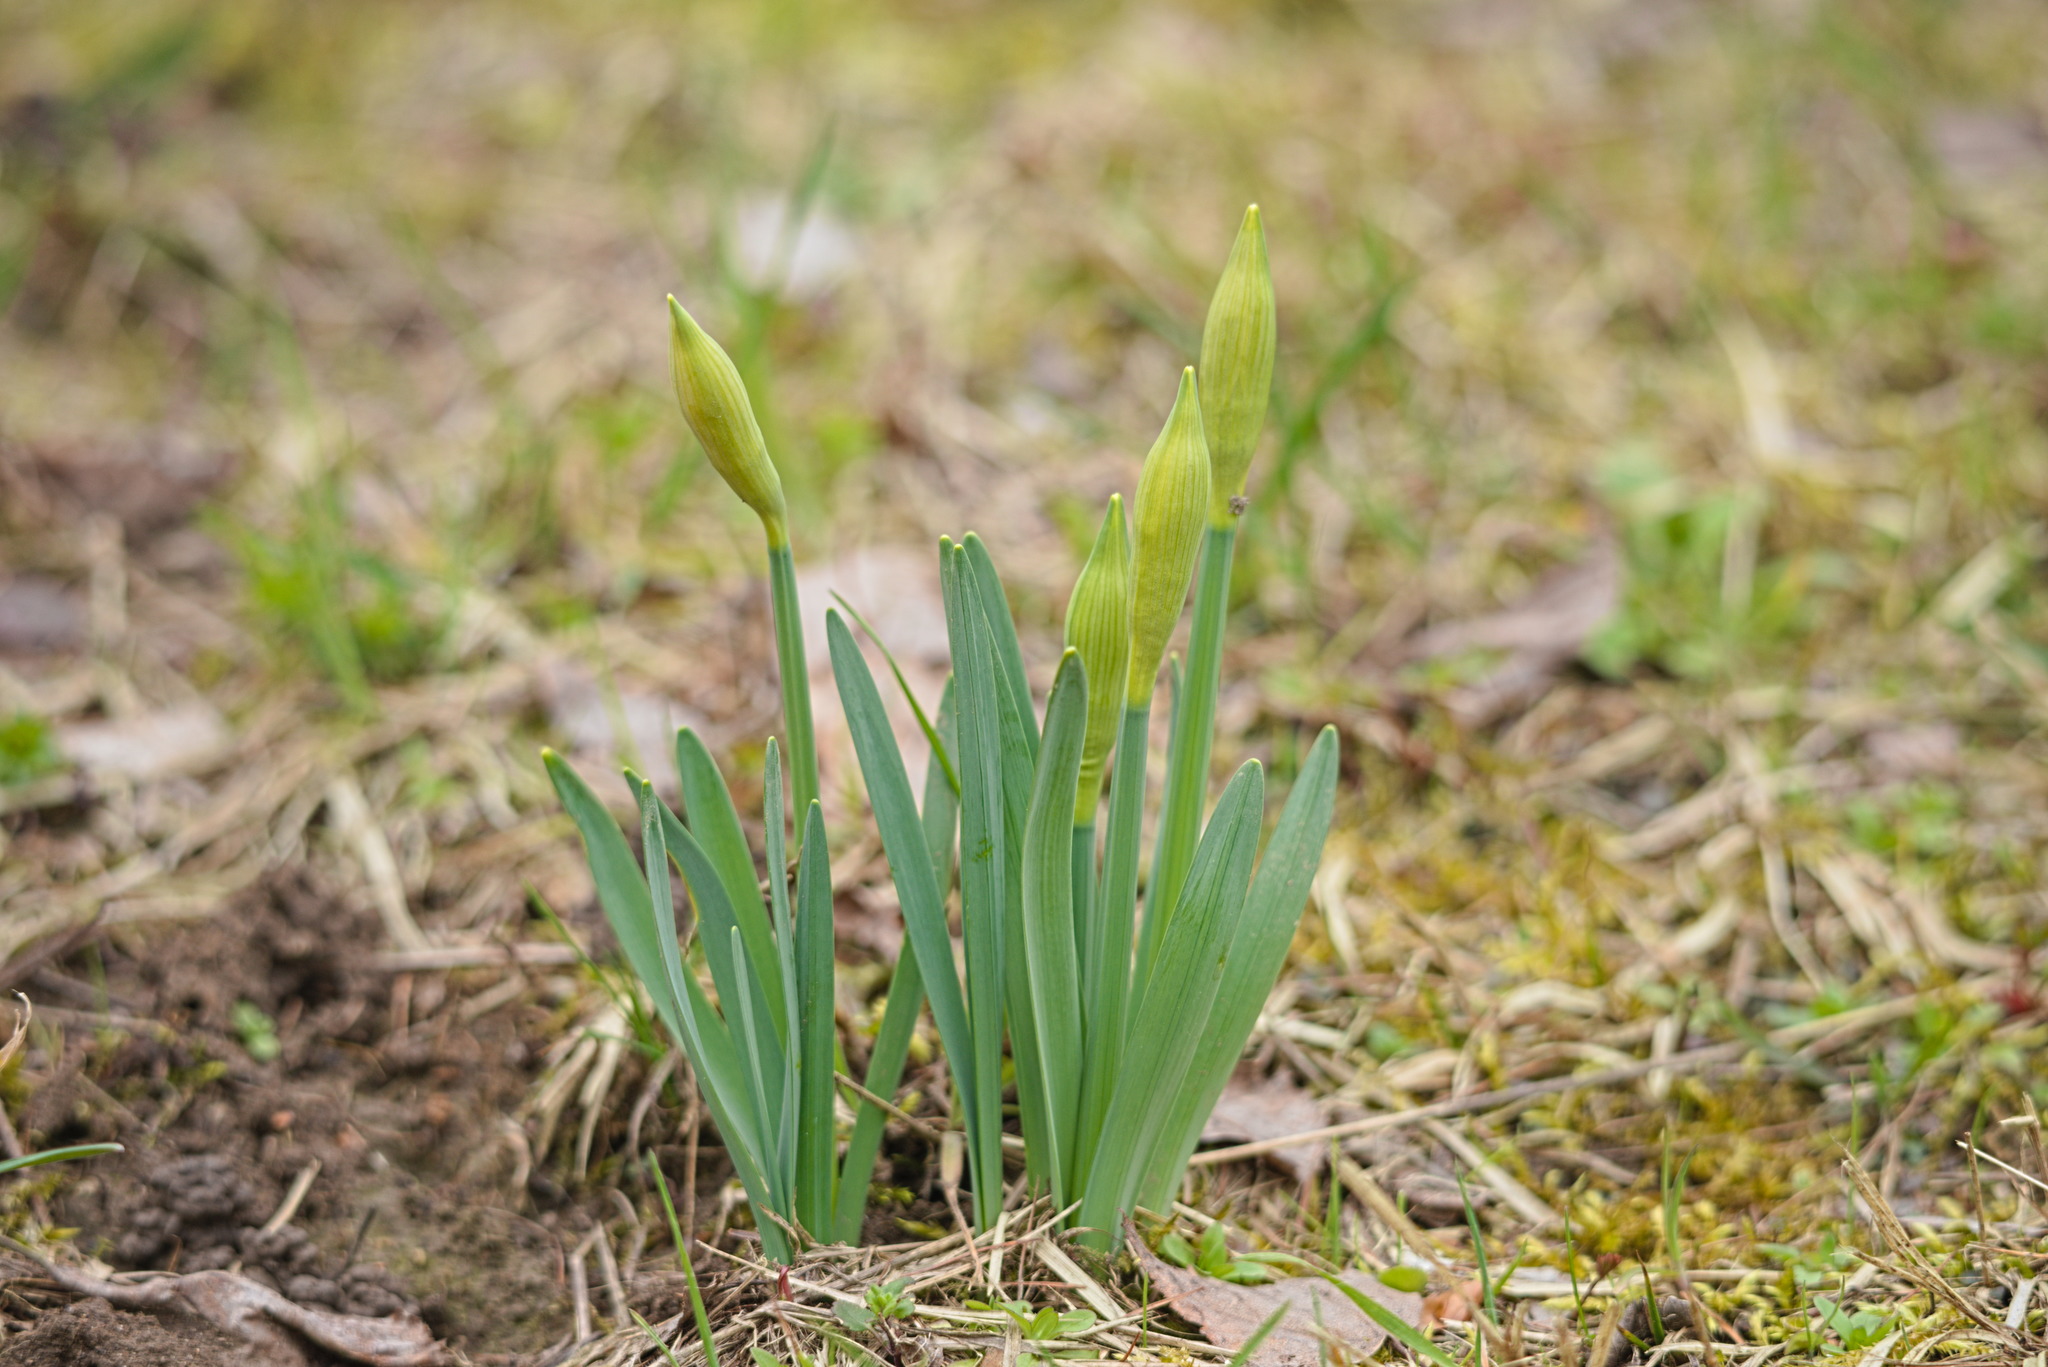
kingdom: Plantae
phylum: Tracheophyta
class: Liliopsida
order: Asparagales
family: Amaryllidaceae
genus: Narcissus
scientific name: Narcissus pseudonarcissus
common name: Daffodil
